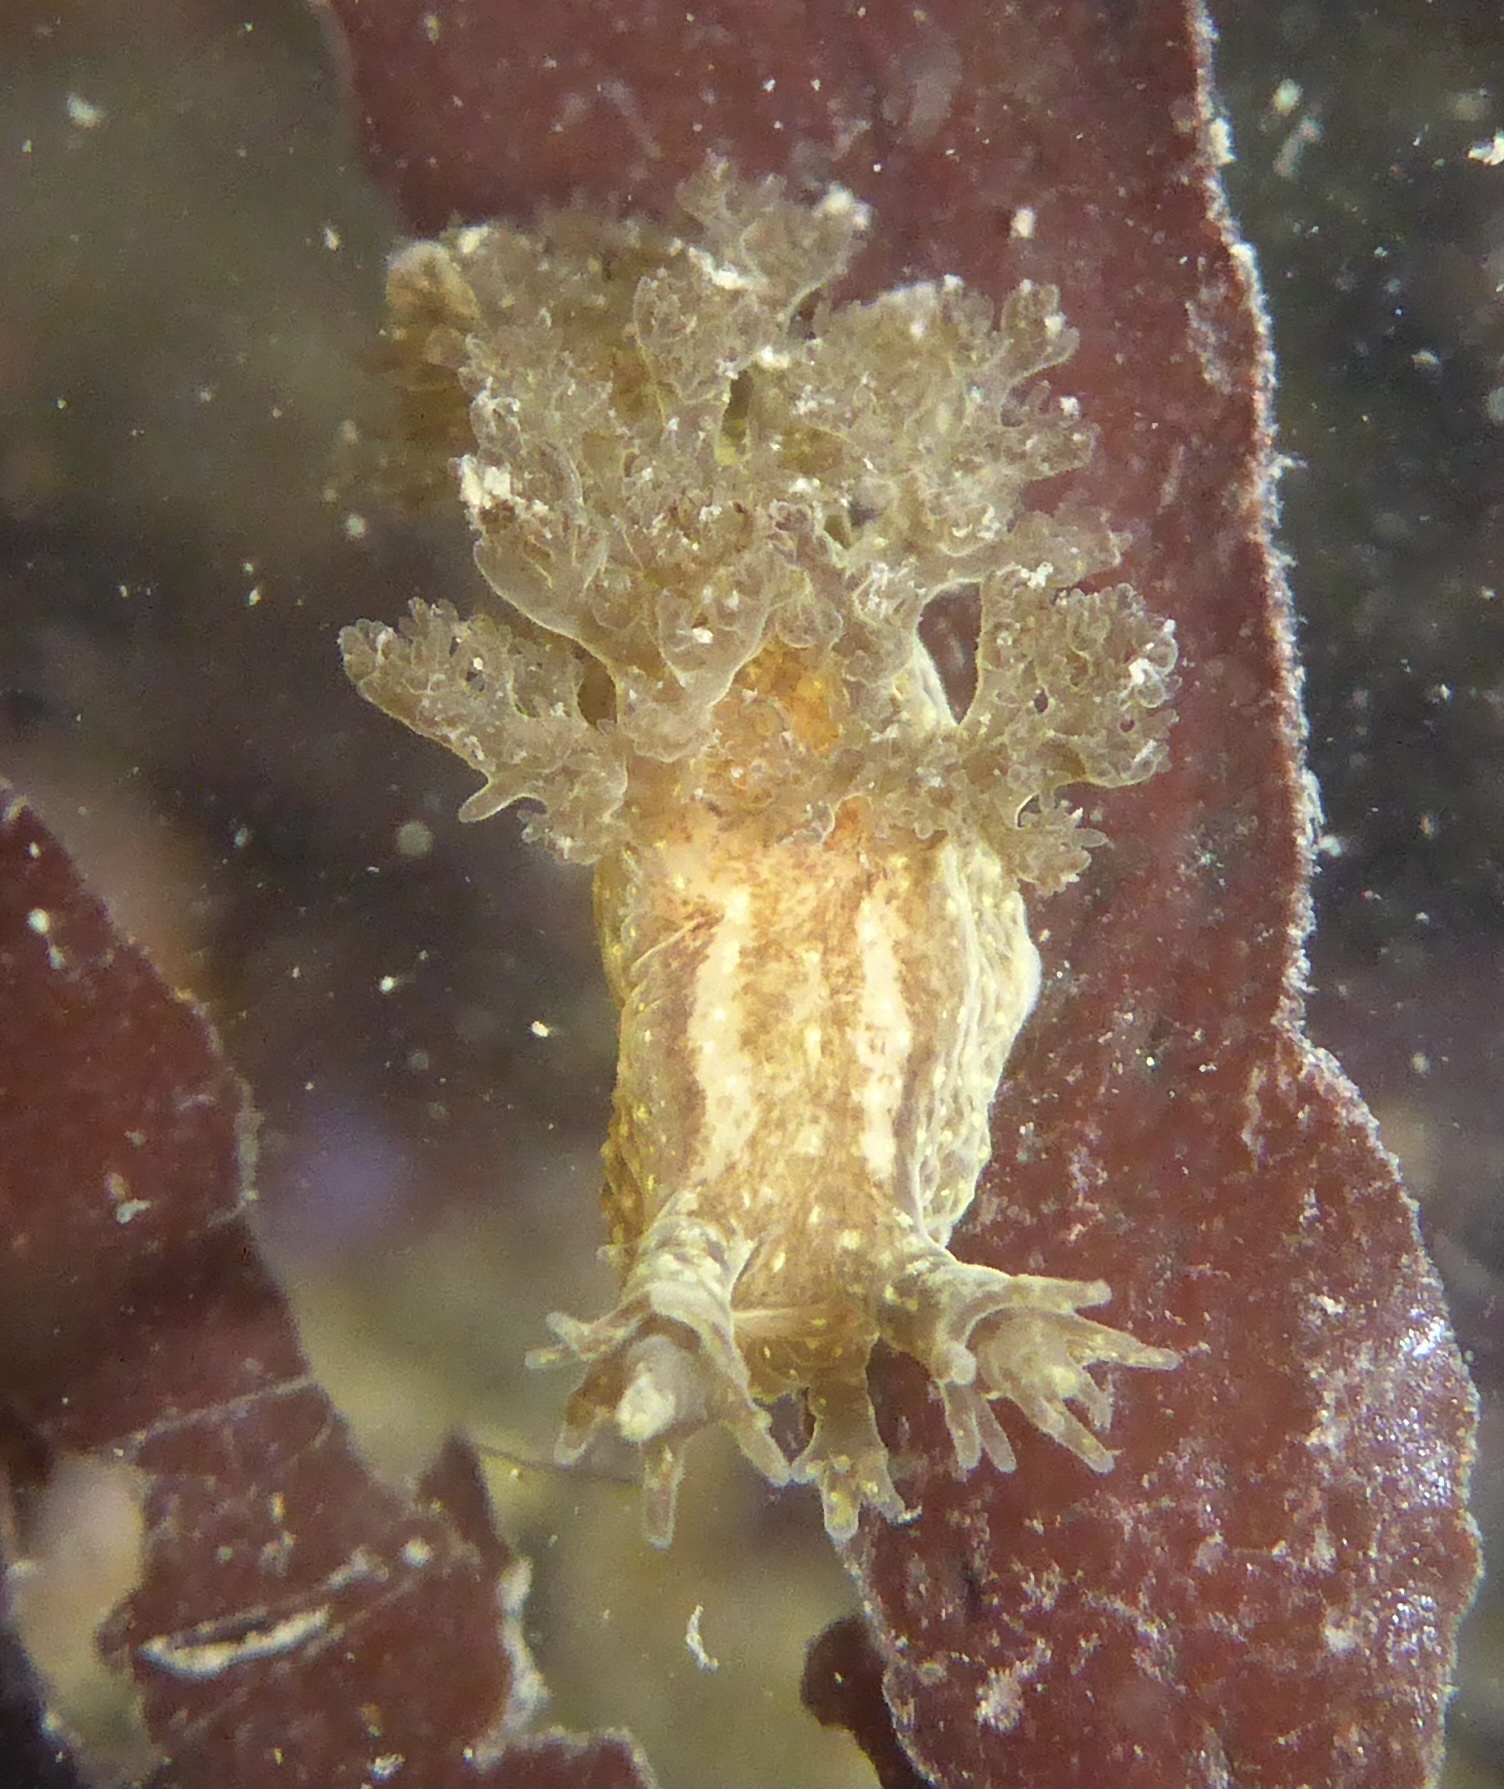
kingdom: Animalia
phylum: Mollusca
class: Gastropoda
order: Nudibranchia
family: Dendronotidae
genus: Dendronotus
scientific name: Dendronotus subramosus
